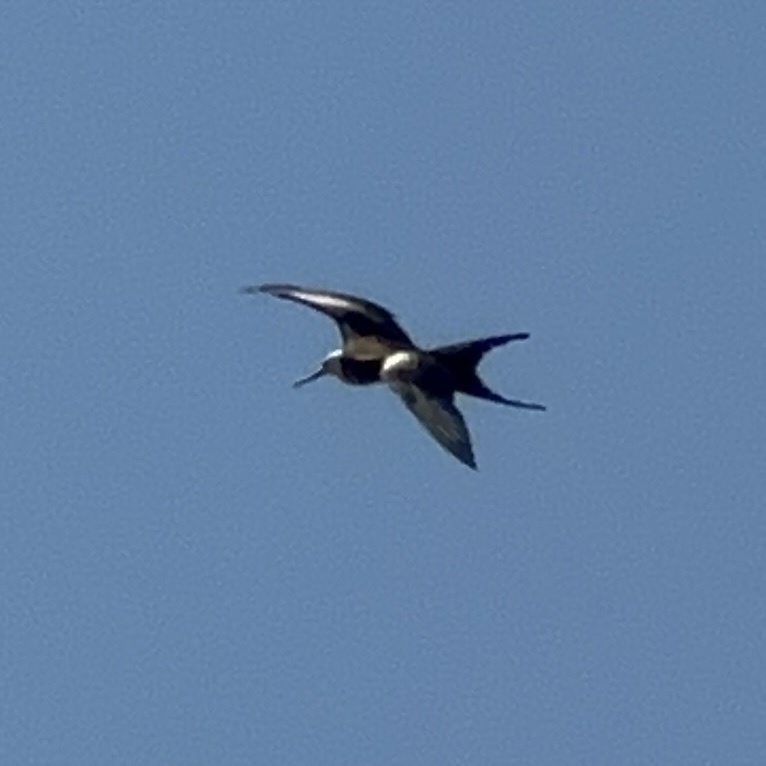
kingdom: Animalia
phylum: Chordata
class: Aves
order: Suliformes
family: Fregatidae
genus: Fregata
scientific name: Fregata magnificens
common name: Magnificent frigatebird
